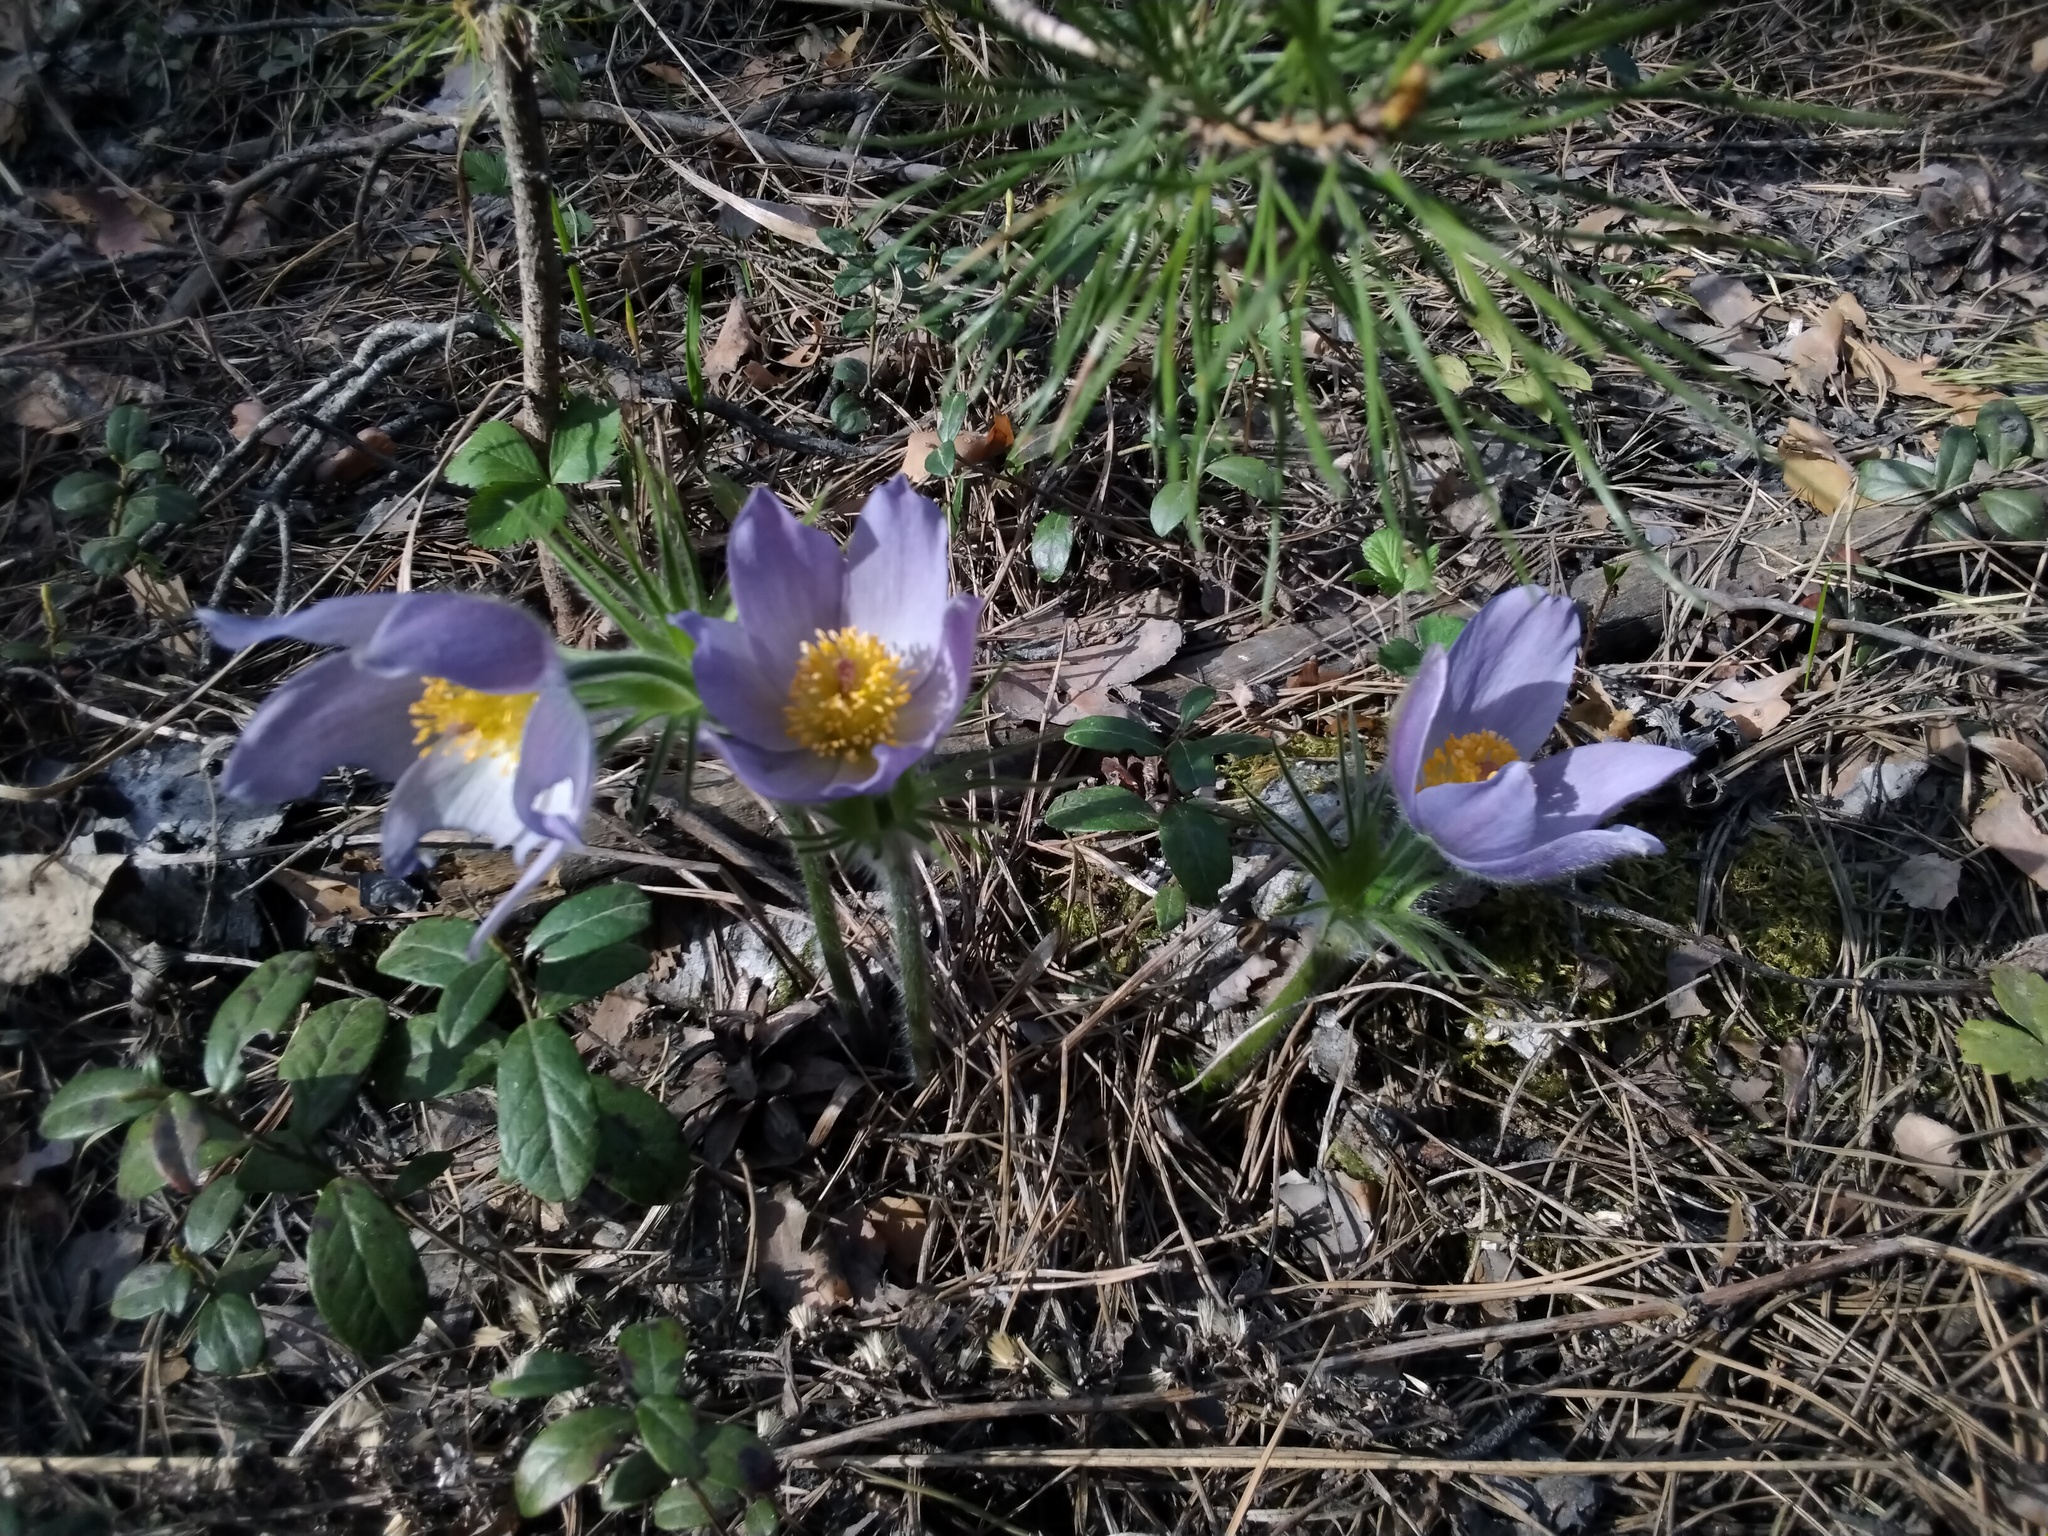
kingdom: Plantae
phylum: Tracheophyta
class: Magnoliopsida
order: Ranunculales
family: Ranunculaceae
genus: Pulsatilla
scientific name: Pulsatilla patens
